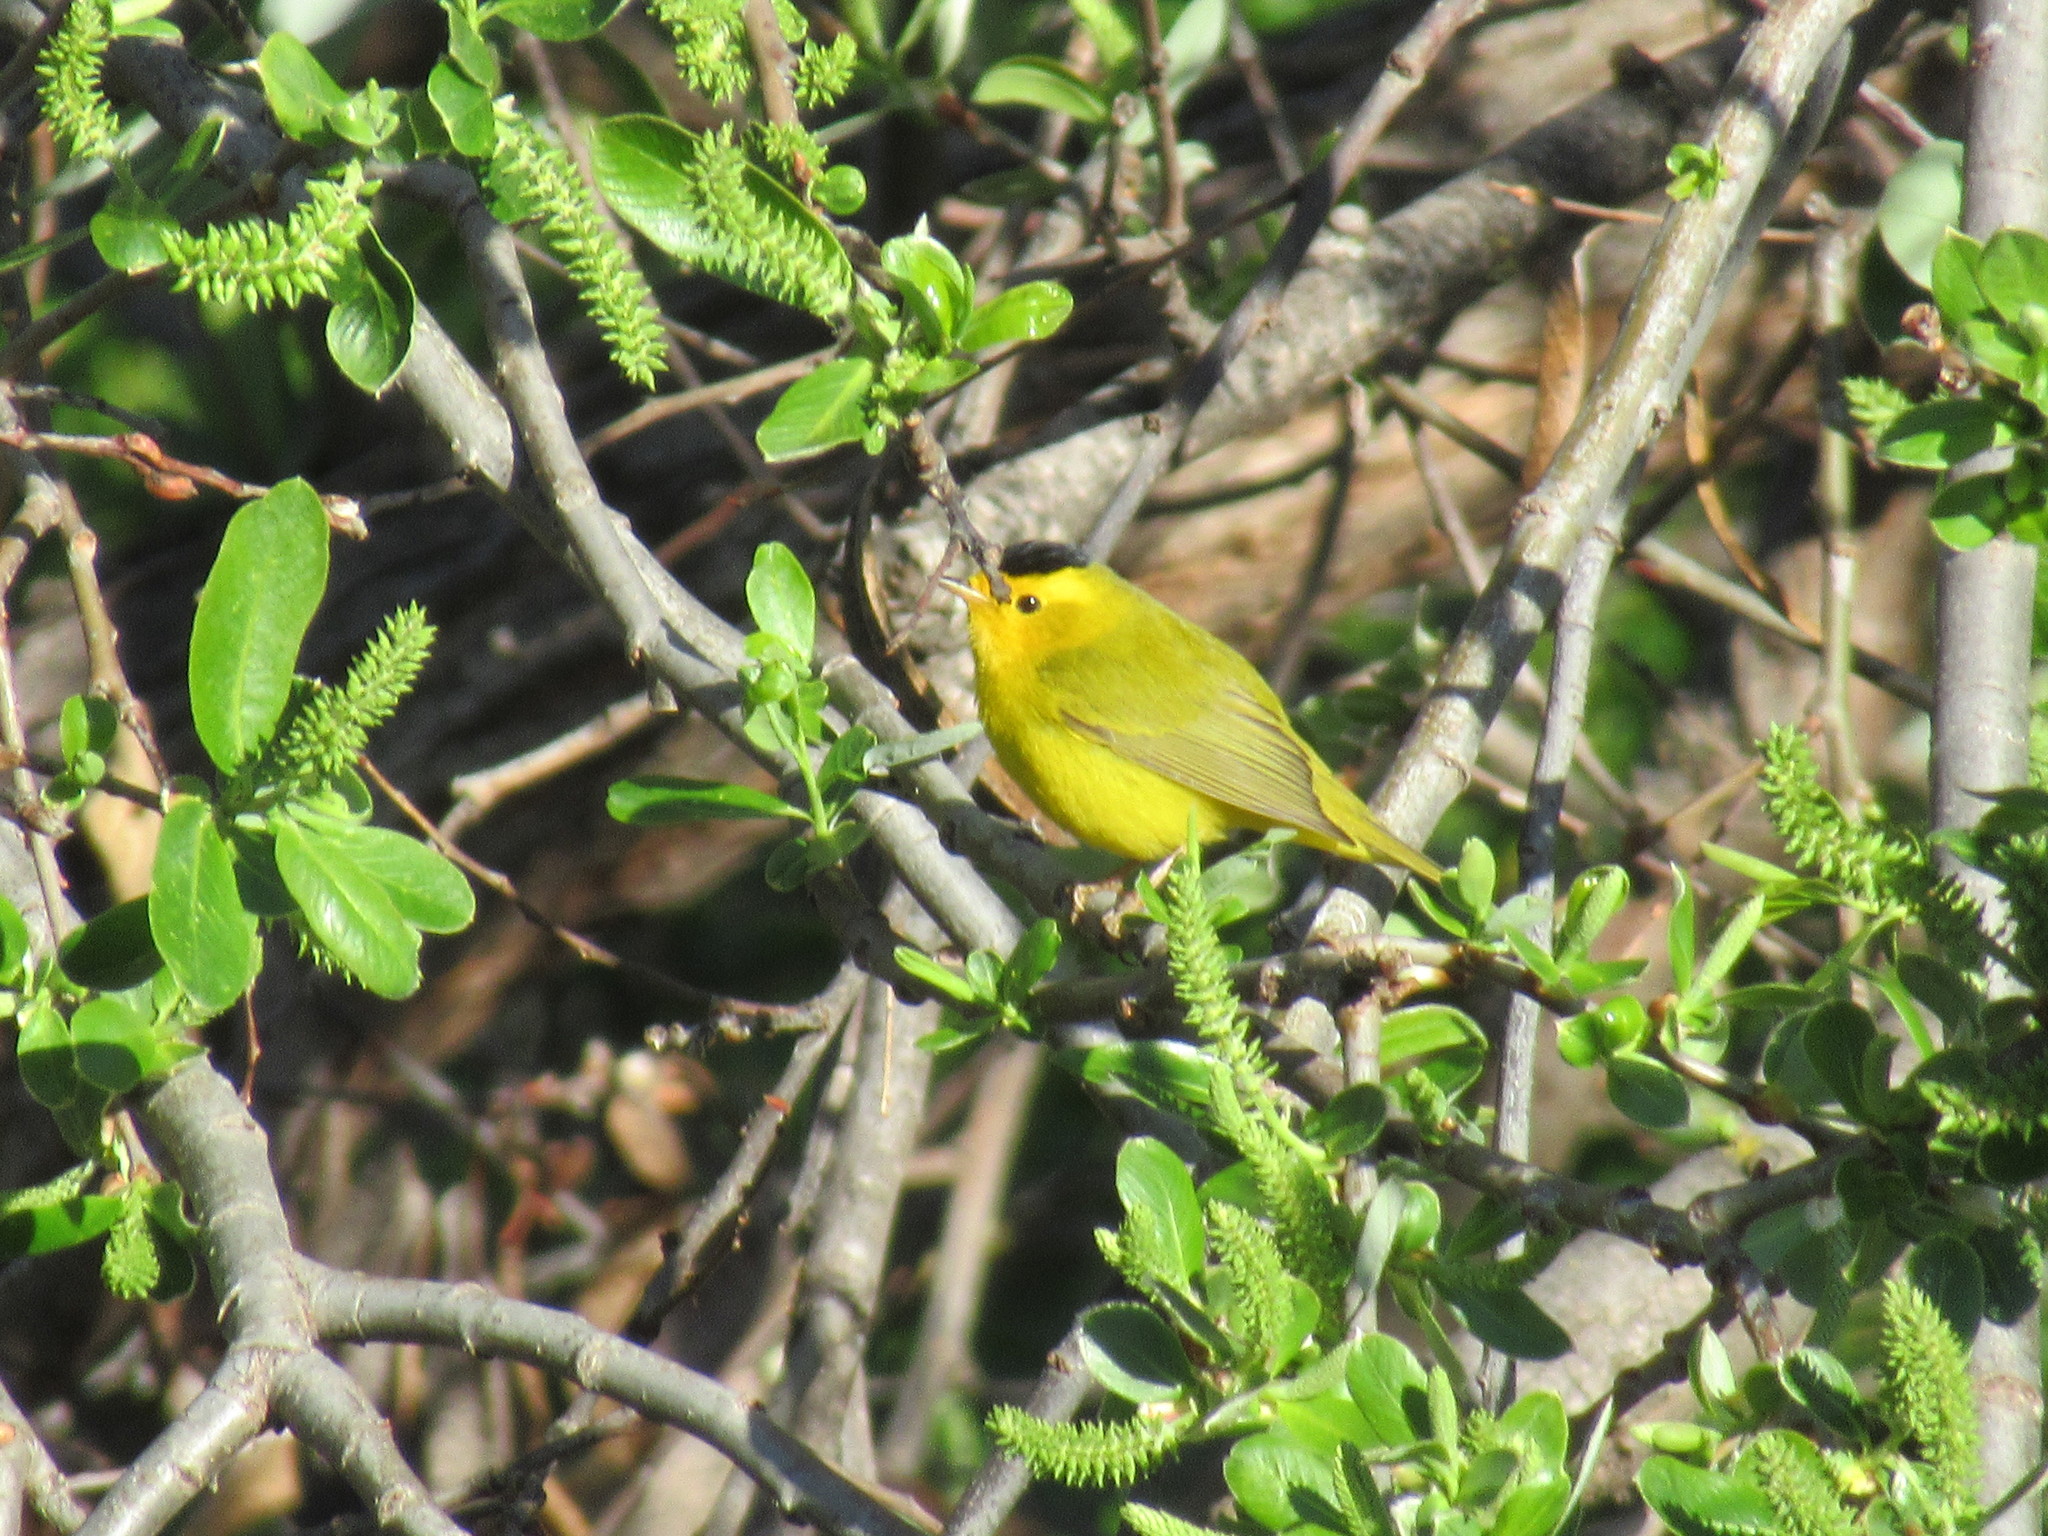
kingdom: Animalia
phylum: Chordata
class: Aves
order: Passeriformes
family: Parulidae
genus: Cardellina
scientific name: Cardellina pusilla
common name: Wilson's warbler
